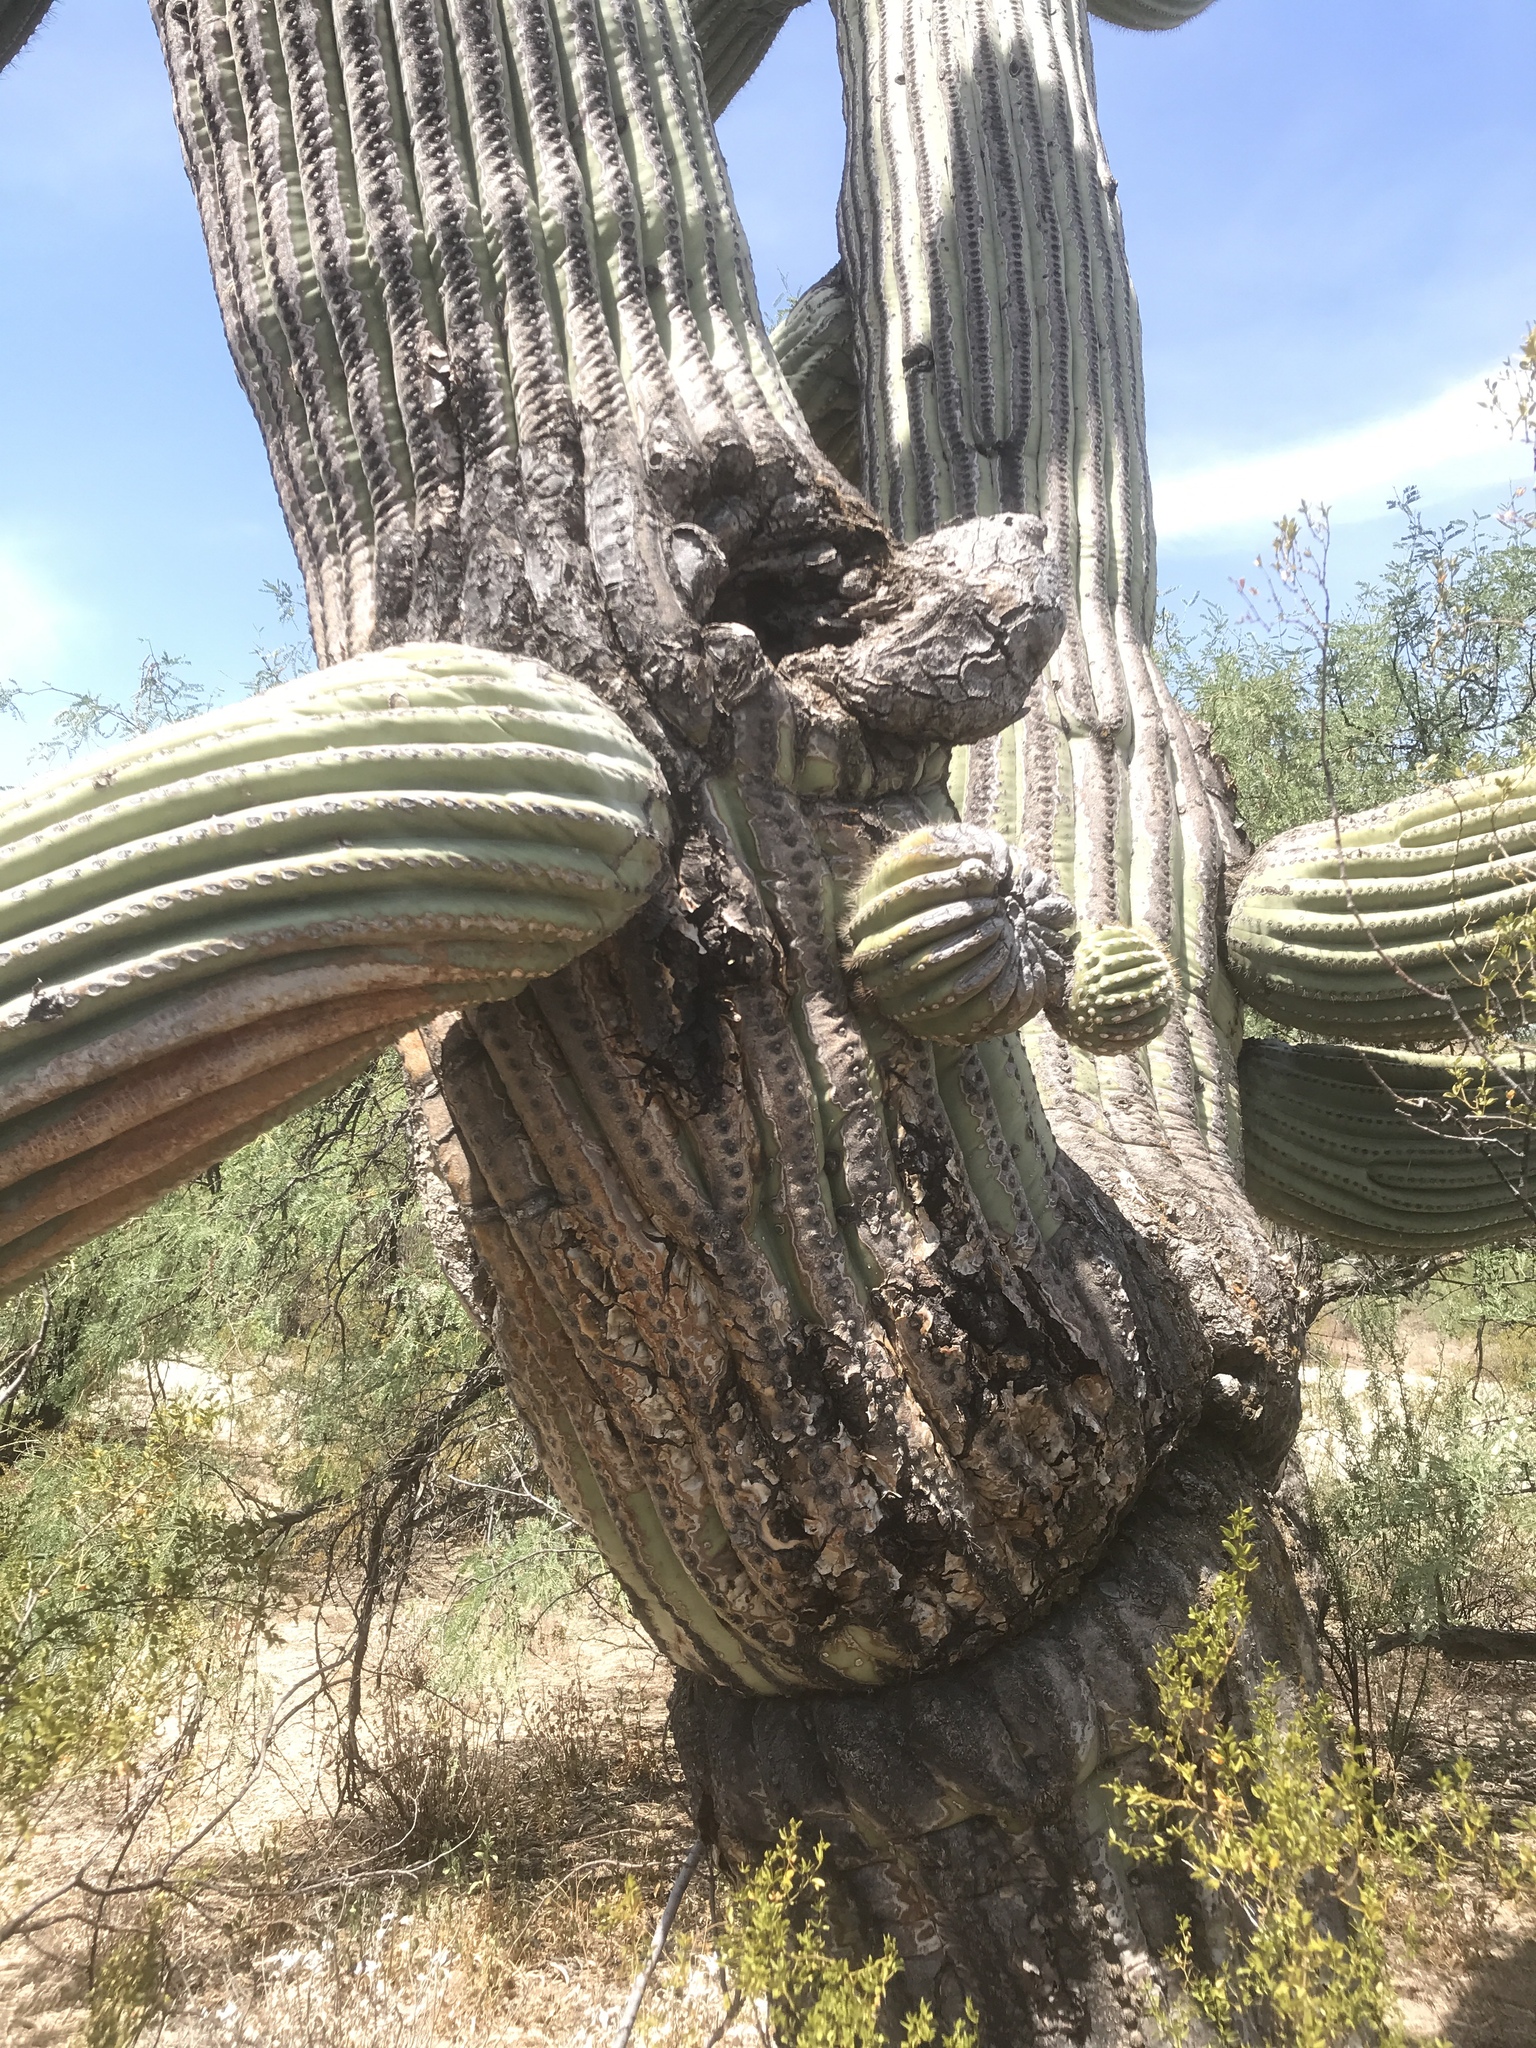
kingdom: Plantae
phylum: Tracheophyta
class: Magnoliopsida
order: Caryophyllales
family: Cactaceae
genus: Carnegiea
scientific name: Carnegiea gigantea
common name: Saguaro
